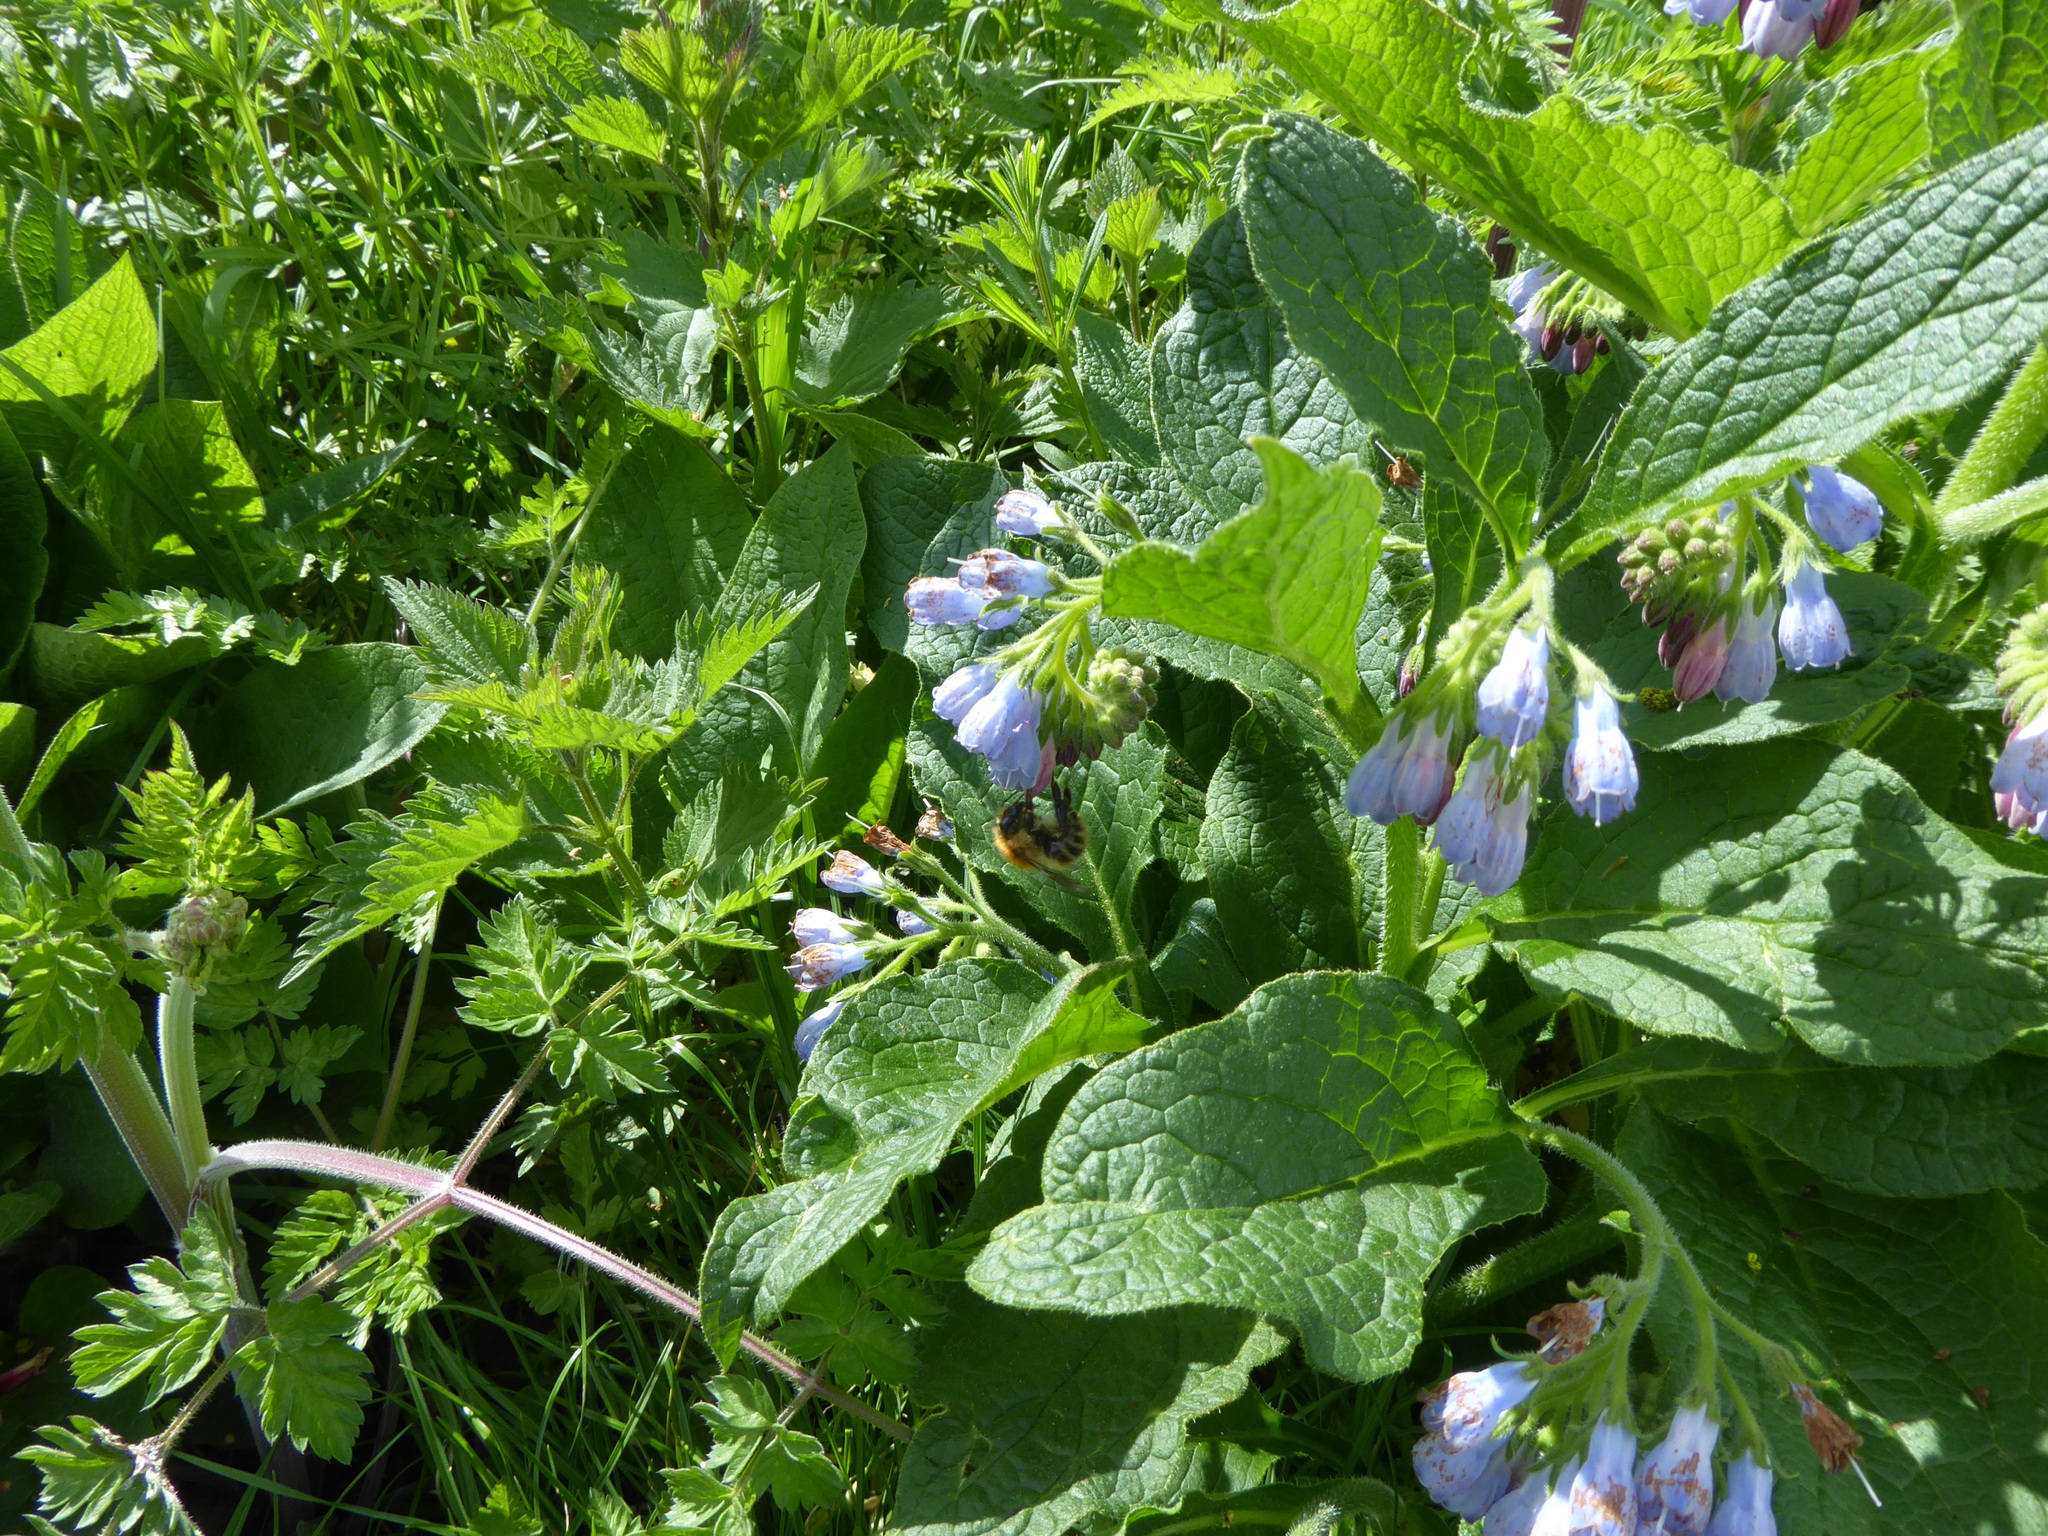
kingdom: Plantae
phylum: Tracheophyta
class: Magnoliopsida
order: Boraginales
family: Boraginaceae
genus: Symphytum
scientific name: Symphytum uplandicum
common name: Russian comfrey
